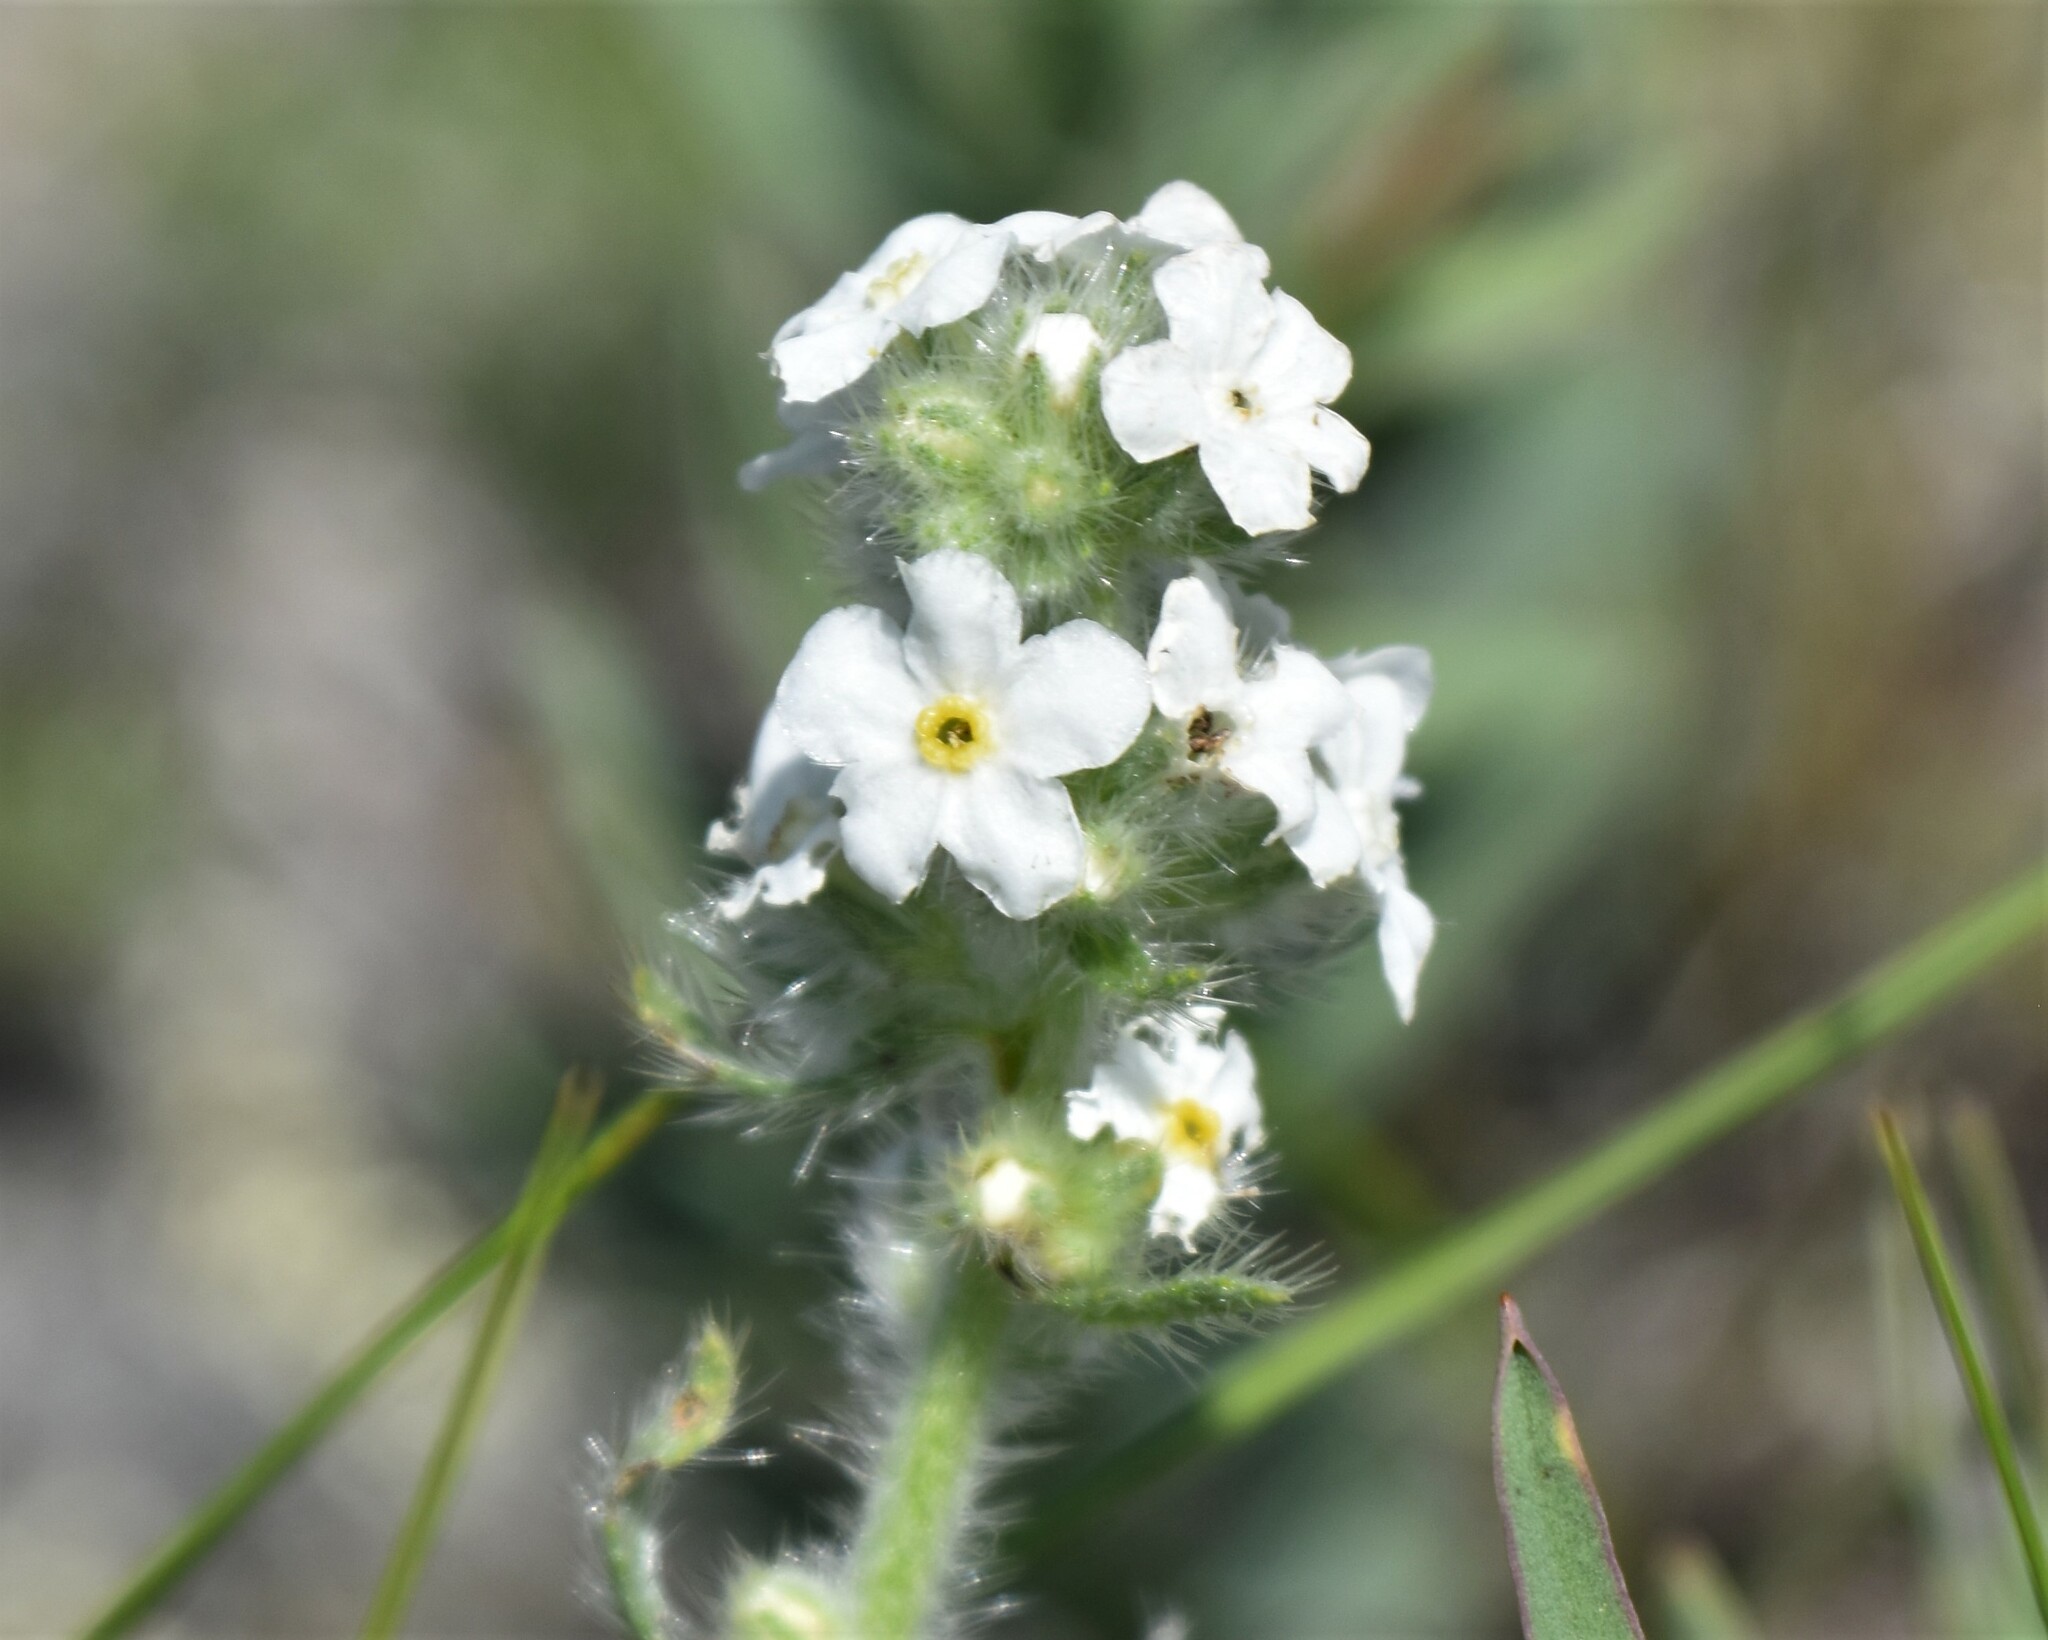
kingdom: Plantae
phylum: Tracheophyta
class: Magnoliopsida
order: Boraginales
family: Boraginaceae
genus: Oreocarya
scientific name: Oreocarya glomerata
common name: Macoun's cryptantha
